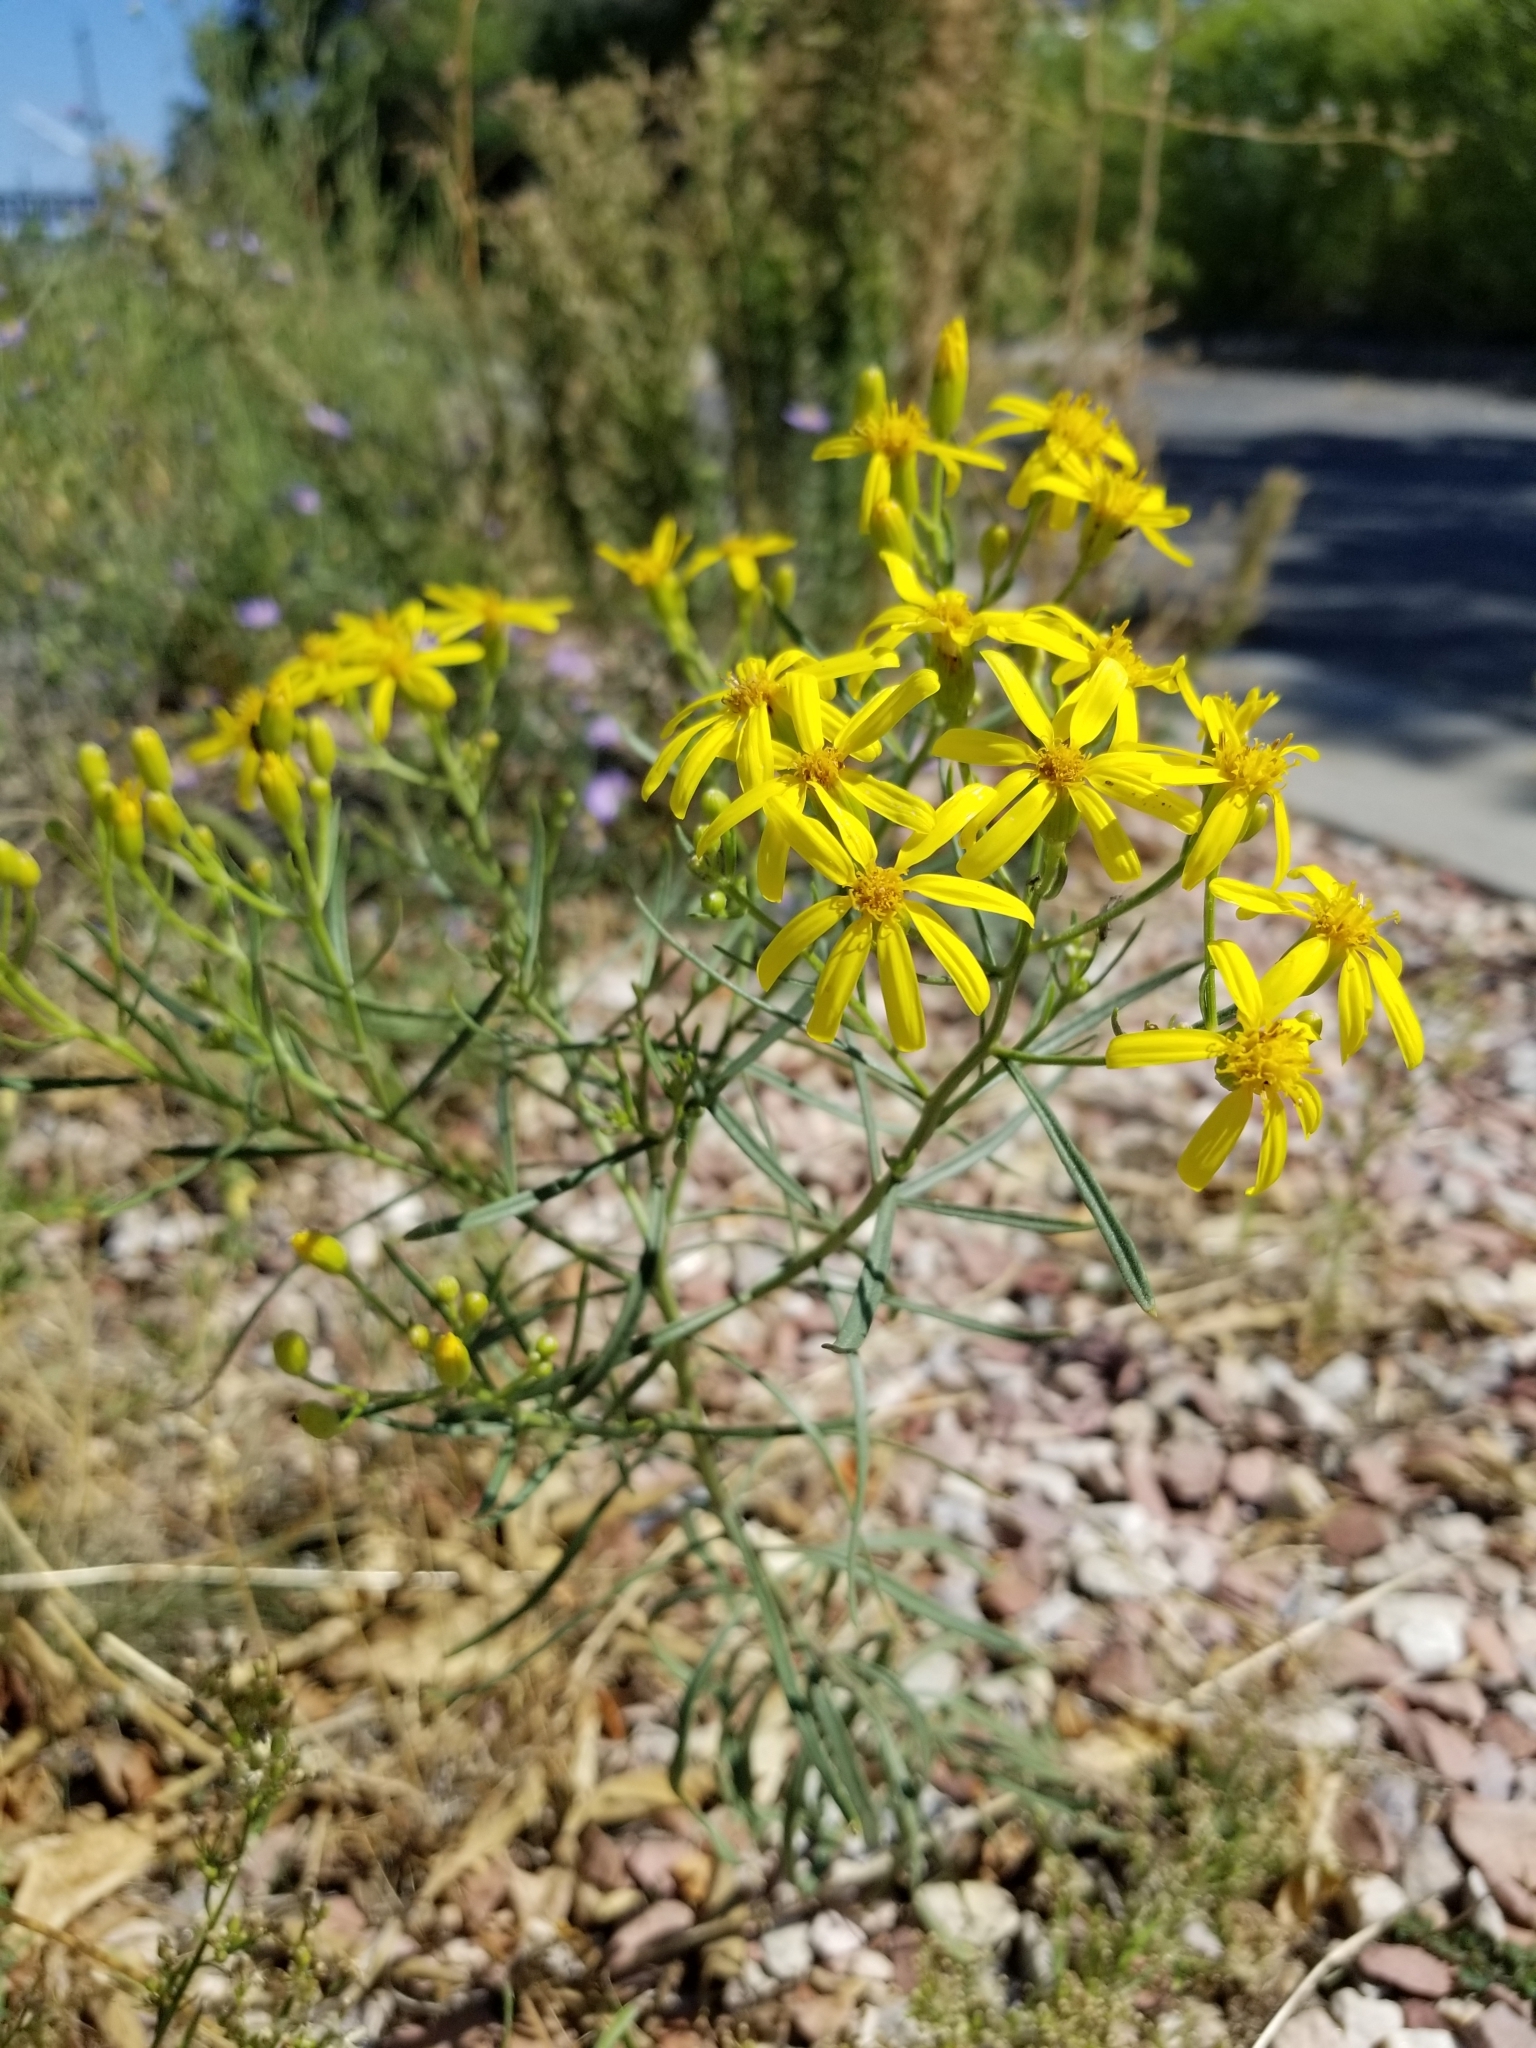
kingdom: Plantae
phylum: Tracheophyta
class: Magnoliopsida
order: Asterales
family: Asteraceae
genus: Senecio
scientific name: Senecio spartioides
